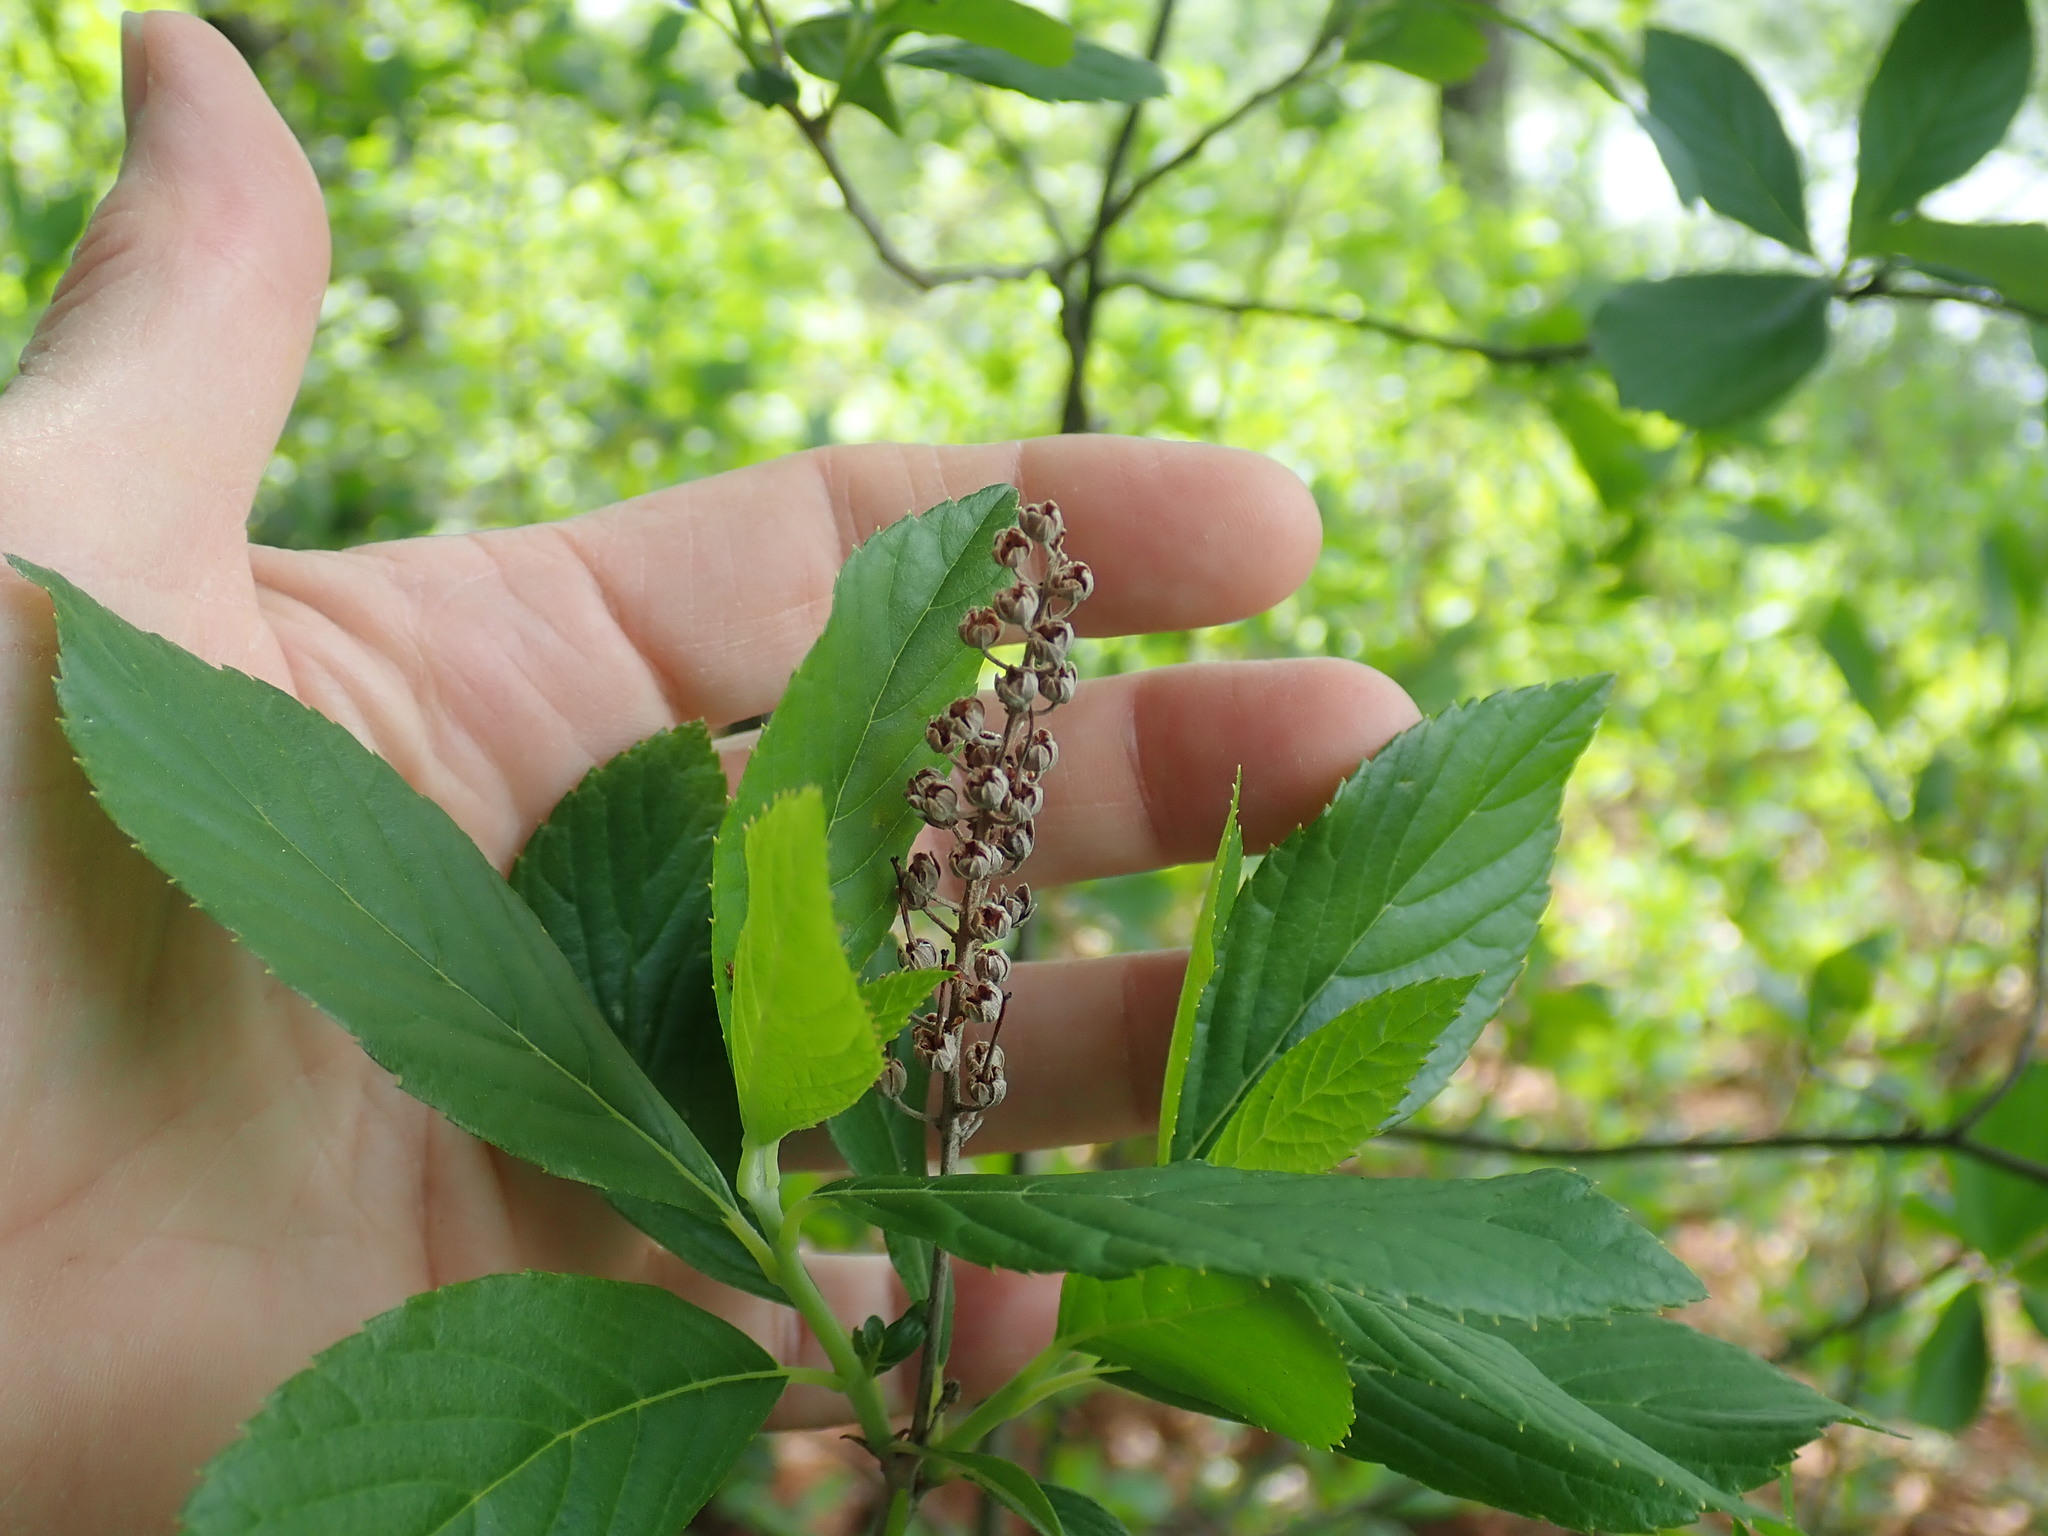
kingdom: Plantae
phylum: Tracheophyta
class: Magnoliopsida
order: Ericales
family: Clethraceae
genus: Clethra
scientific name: Clethra alnifolia
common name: Sweet pepperbush
